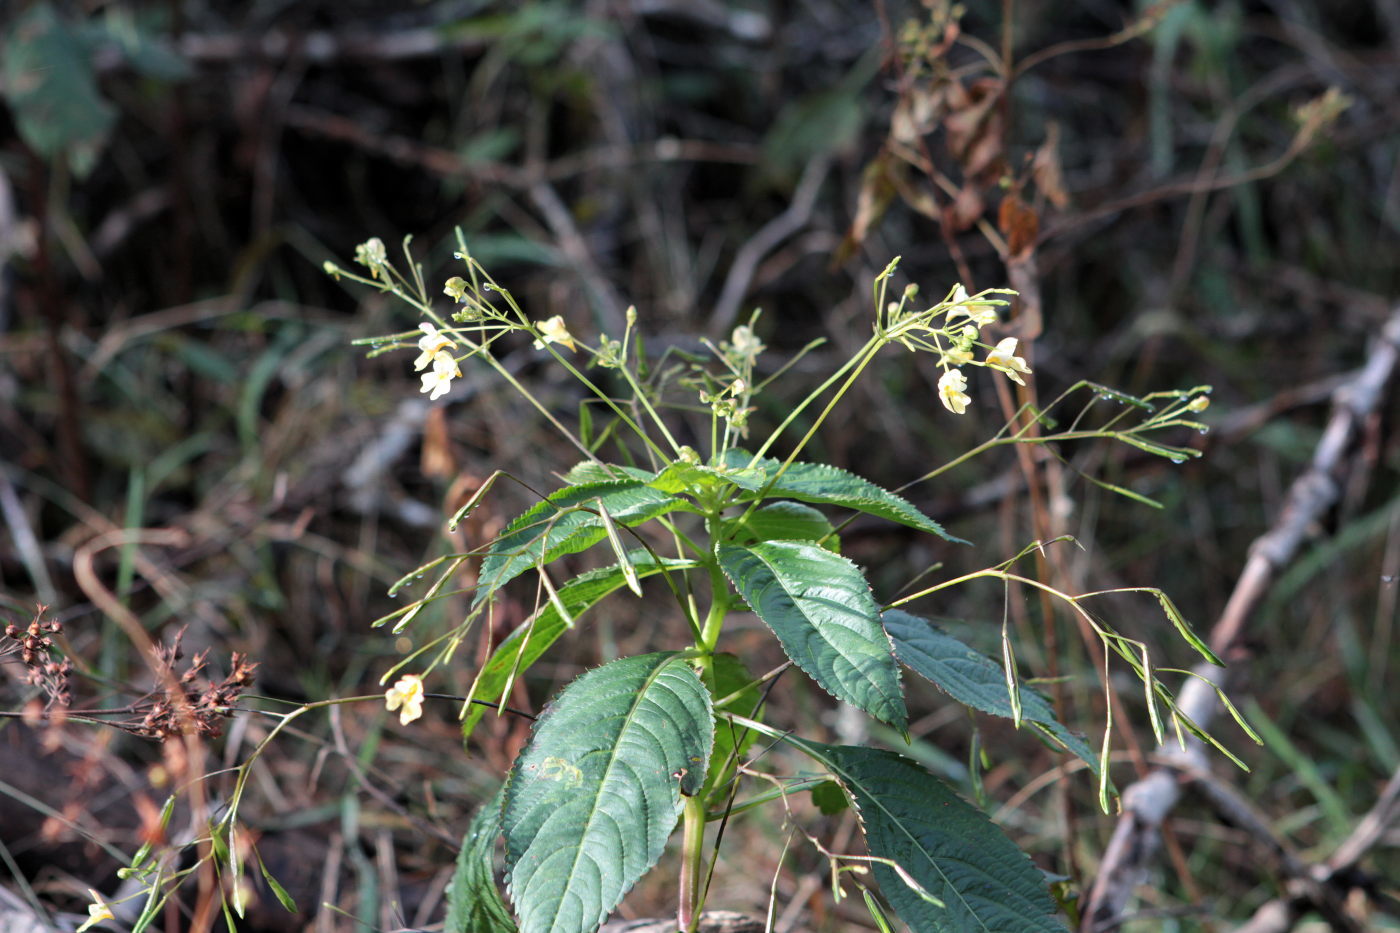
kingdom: Plantae
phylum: Tracheophyta
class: Magnoliopsida
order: Ericales
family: Balsaminaceae
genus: Impatiens
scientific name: Impatiens parviflora
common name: Small balsam
